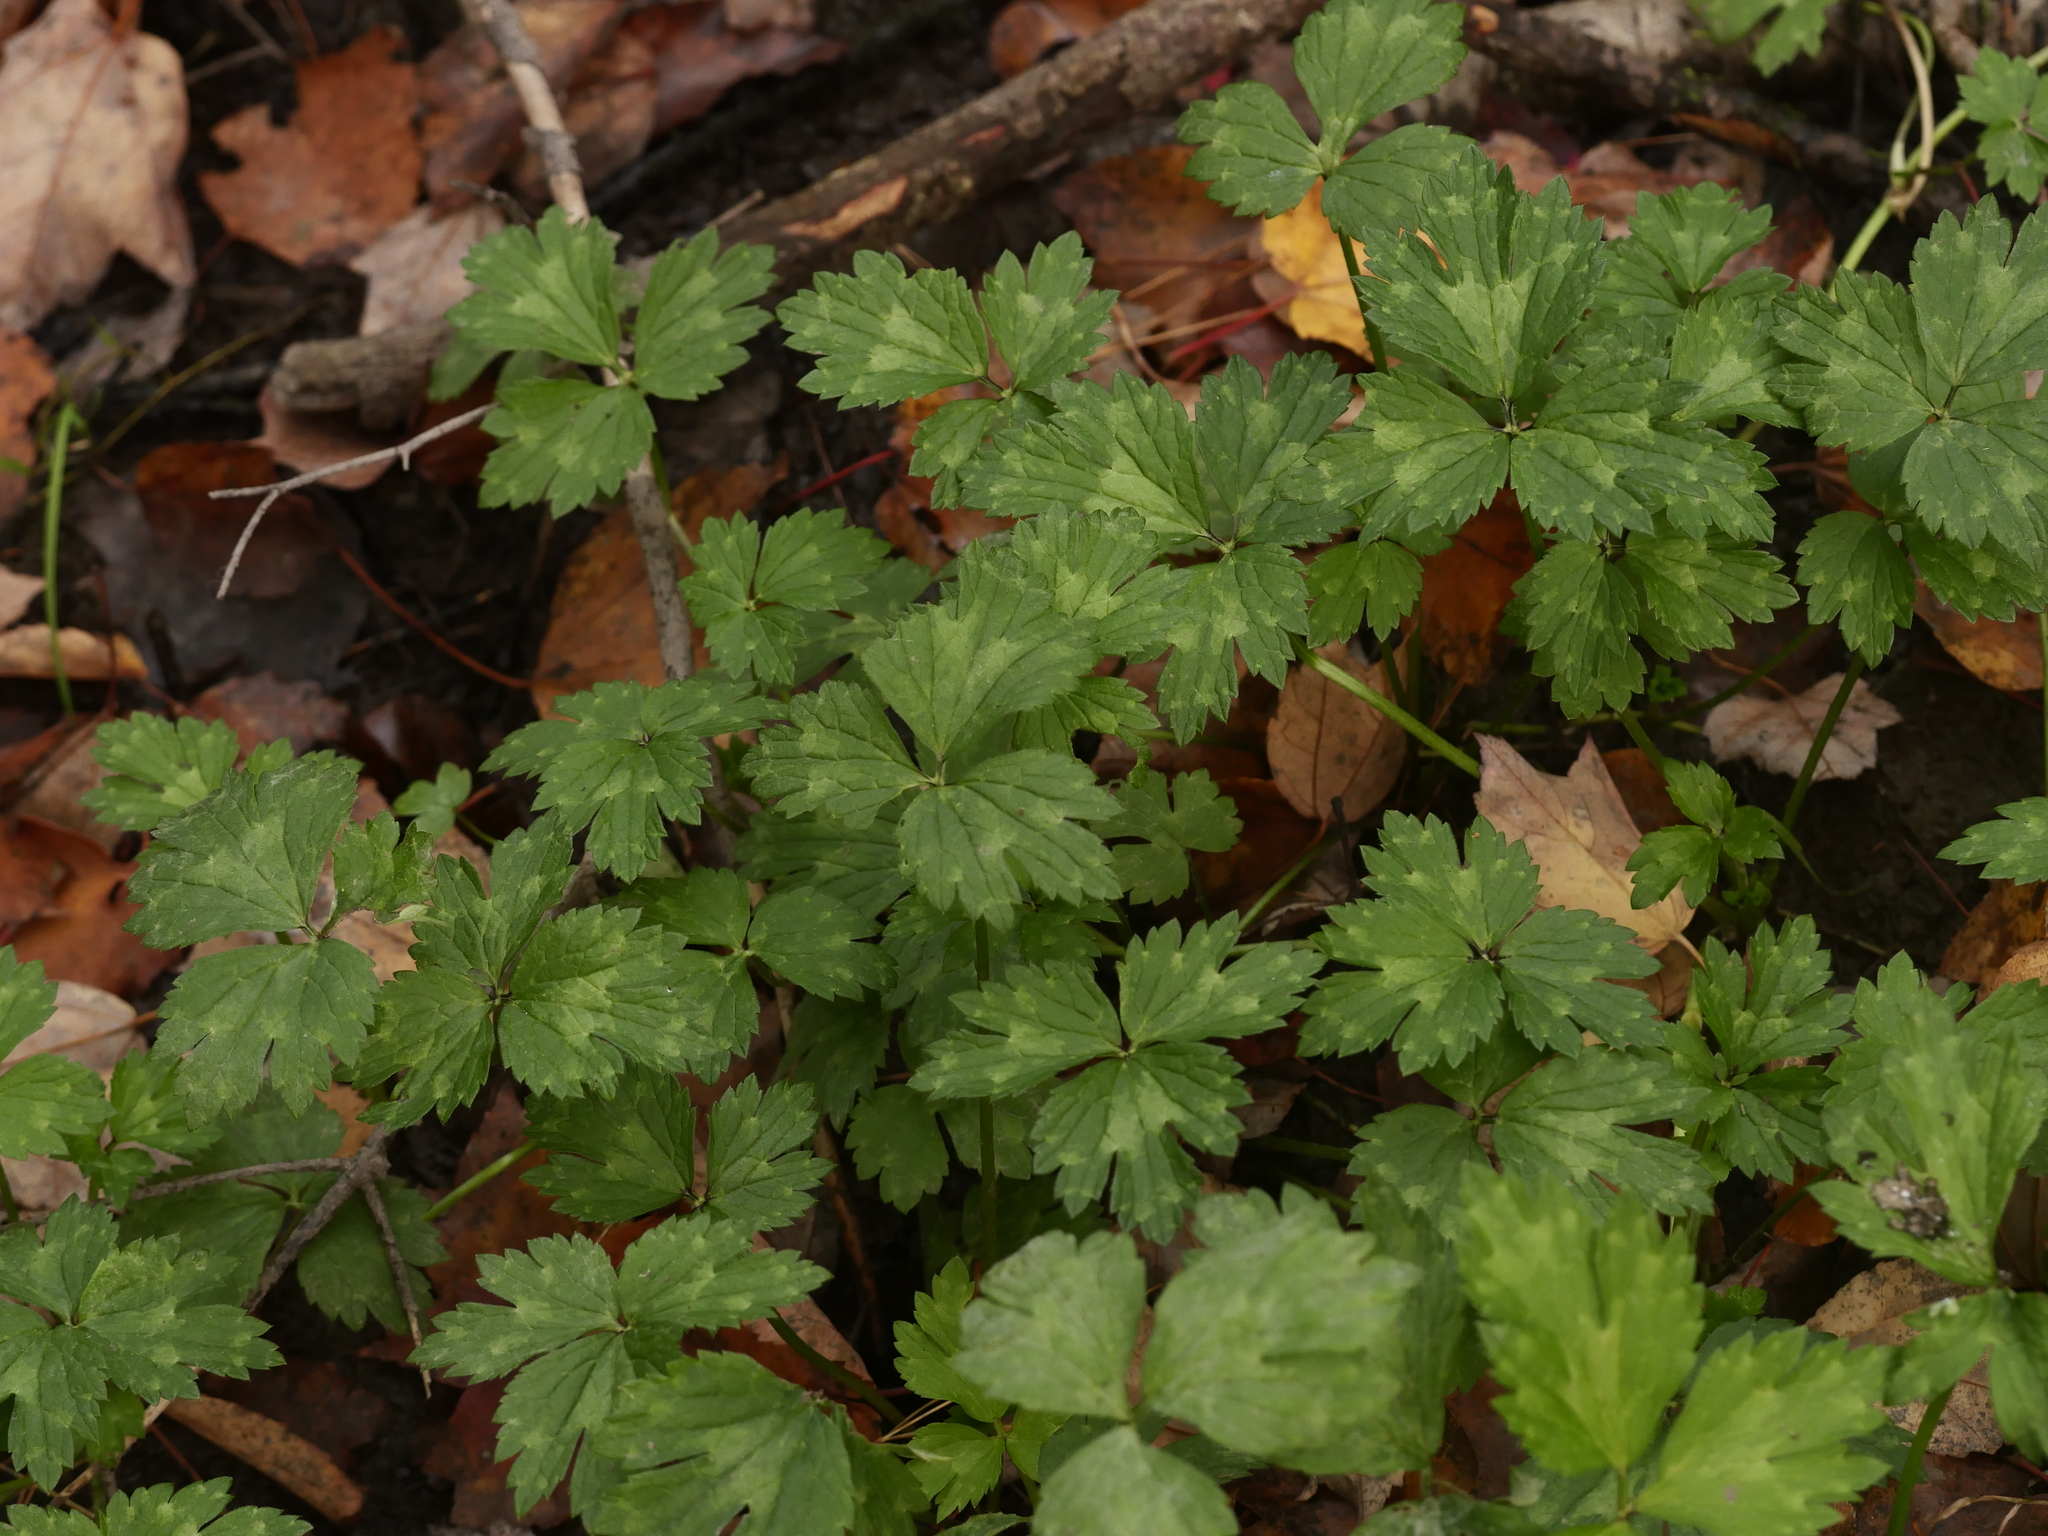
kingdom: Plantae
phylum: Tracheophyta
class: Magnoliopsida
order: Ranunculales
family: Ranunculaceae
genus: Ranunculus
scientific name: Ranunculus repens
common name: Creeping buttercup
